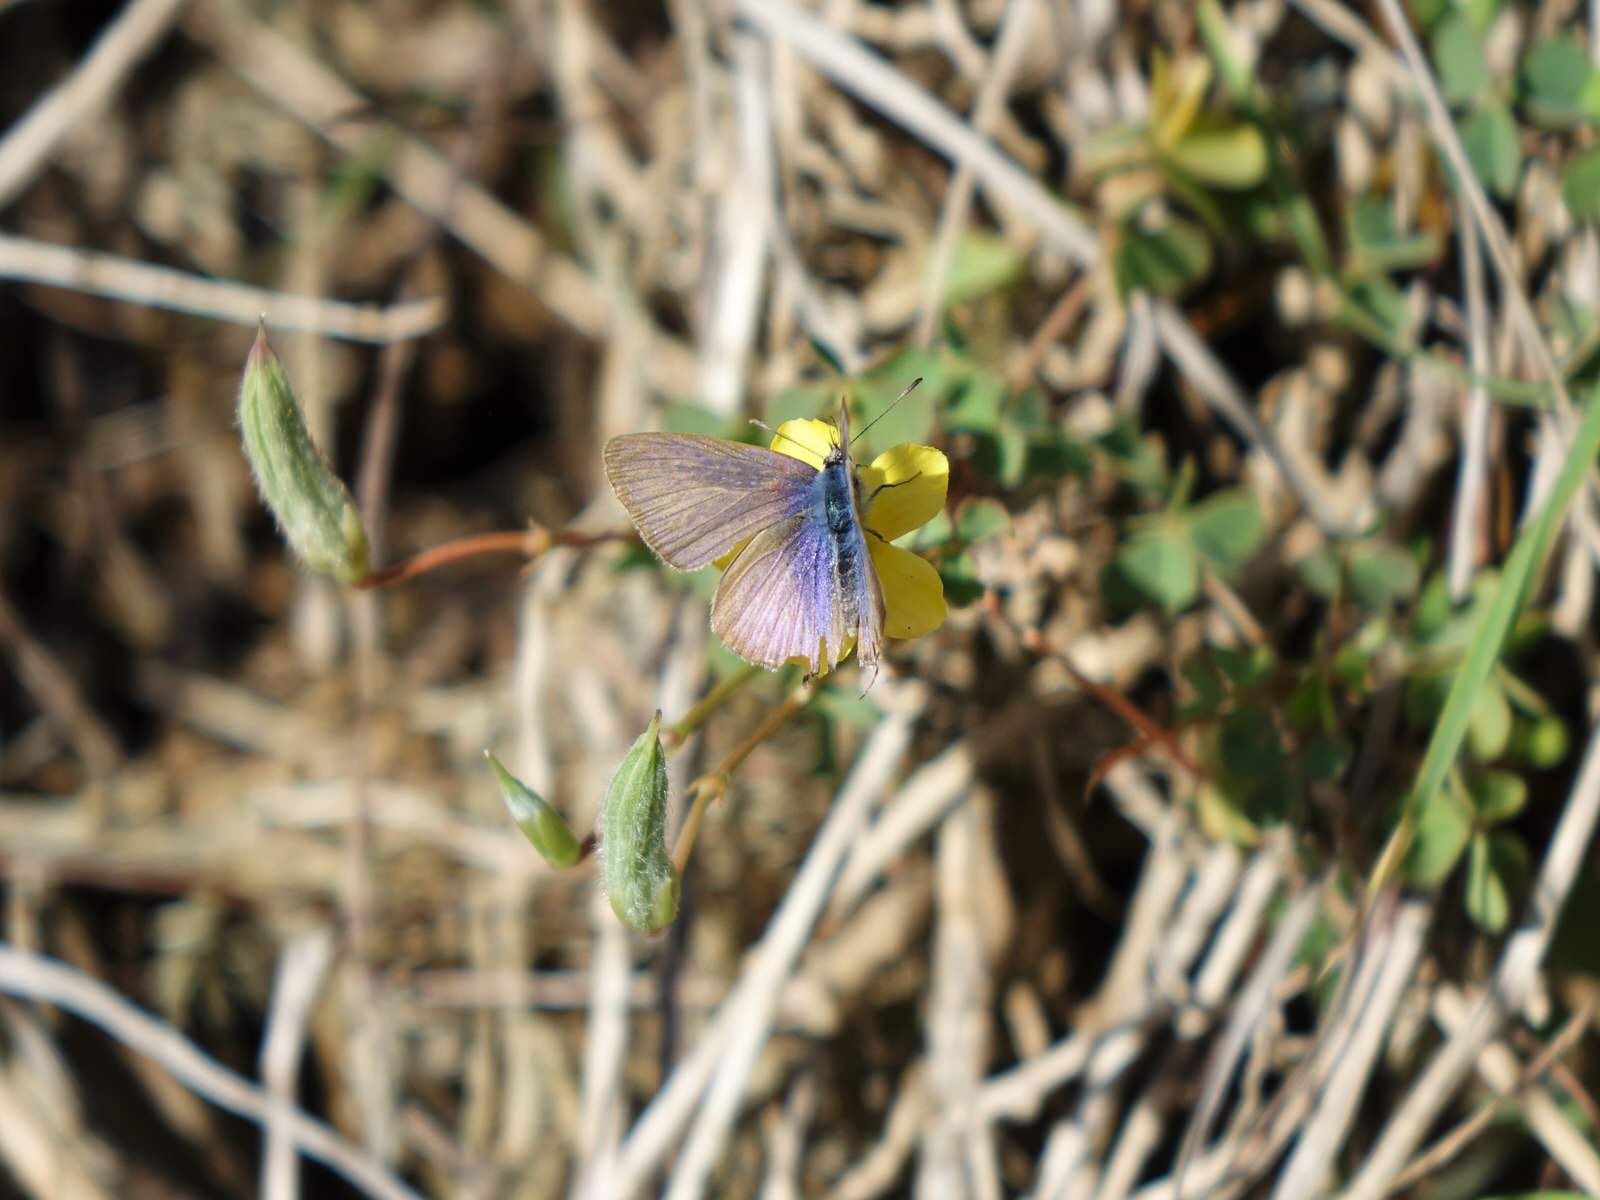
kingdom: Animalia
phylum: Arthropoda
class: Insecta
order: Lepidoptera
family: Lycaenidae
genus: Lampides
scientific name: Lampides boeticus
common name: Long-tailed blue
